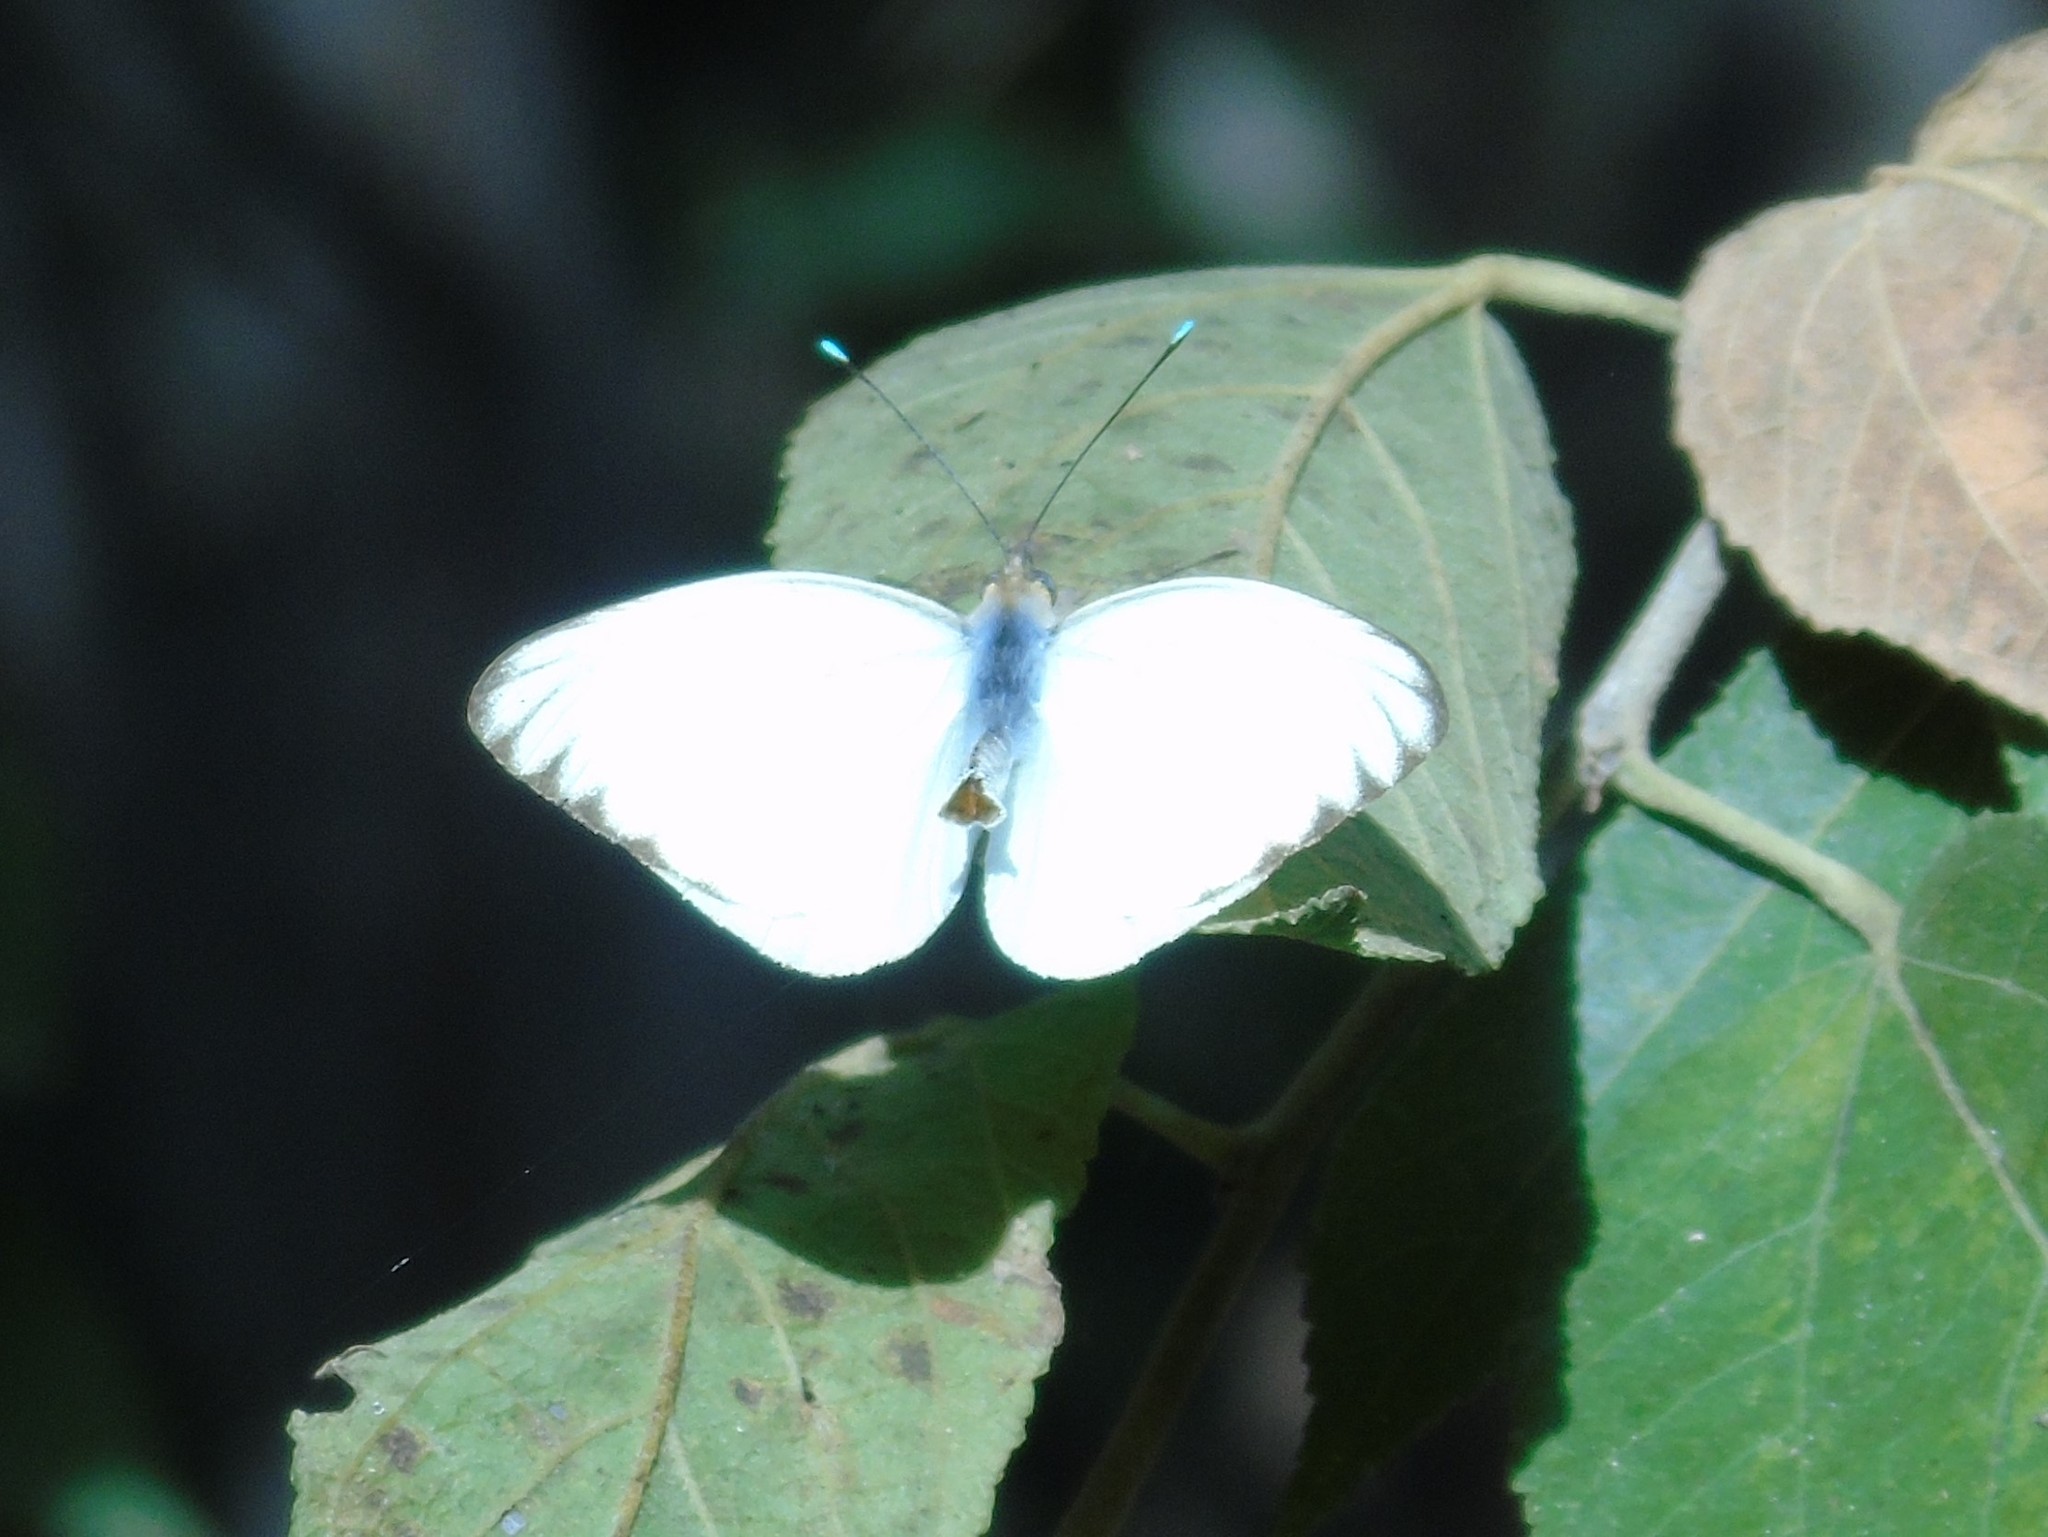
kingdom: Animalia
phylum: Arthropoda
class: Insecta
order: Lepidoptera
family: Pieridae
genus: Ascia
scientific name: Ascia monuste
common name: Great southern white
